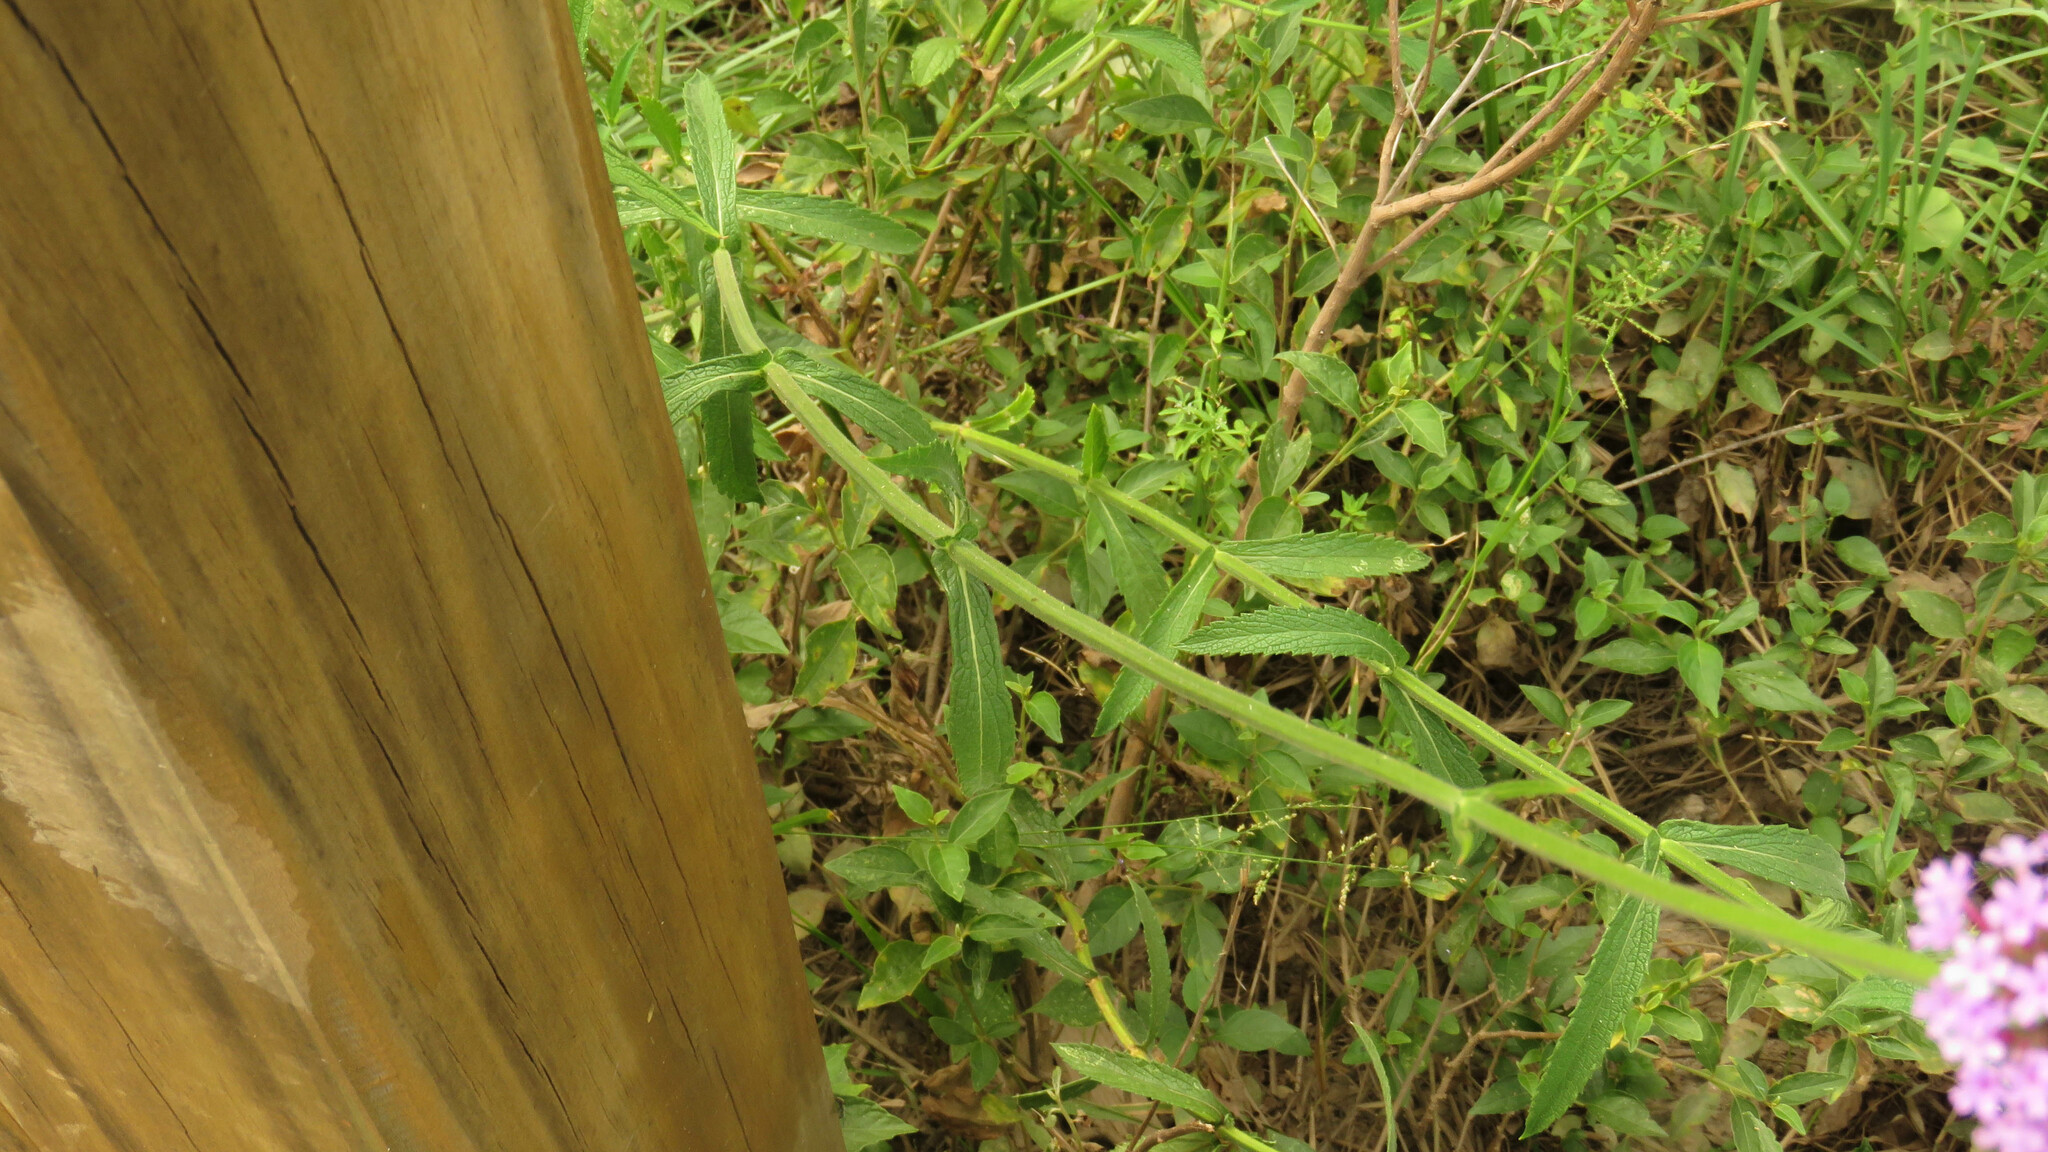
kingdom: Plantae
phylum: Tracheophyta
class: Magnoliopsida
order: Lamiales
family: Verbenaceae
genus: Verbena
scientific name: Verbena bonariensis
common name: Purpletop vervain
